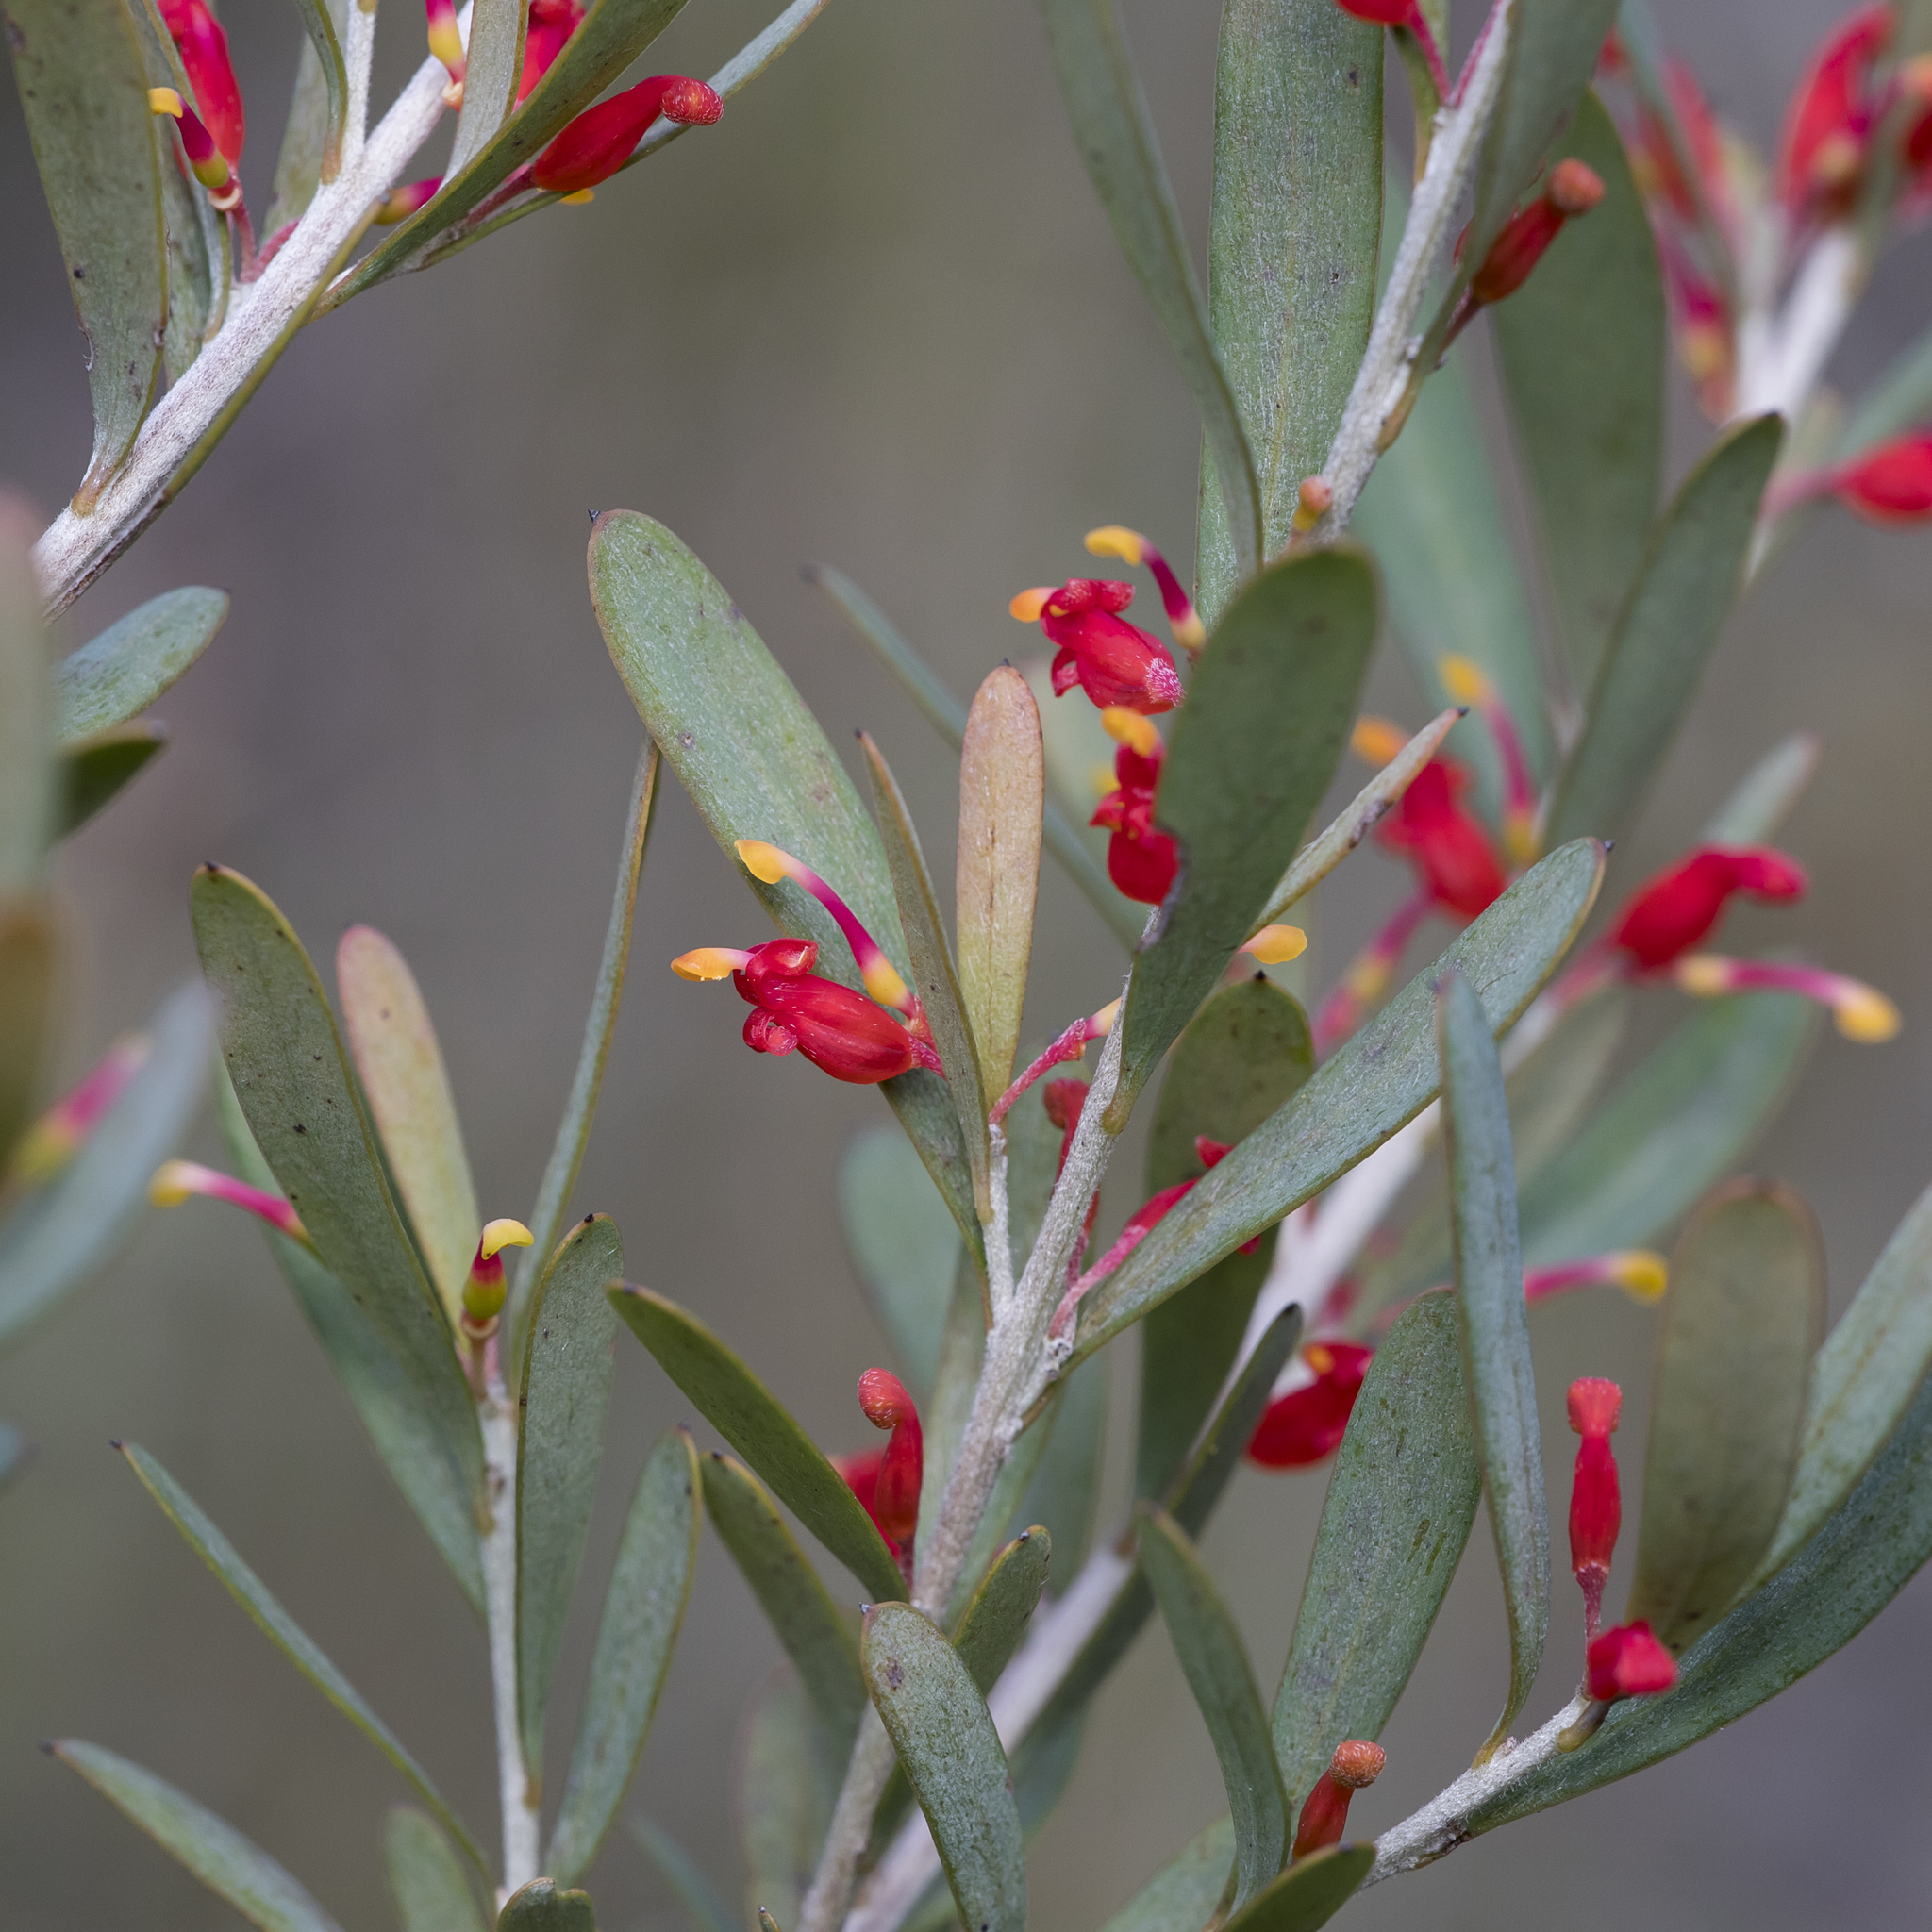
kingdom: Plantae
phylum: Tracheophyta
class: Magnoliopsida
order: Proteales
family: Proteaceae
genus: Grevillea
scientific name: Grevillea pauciflora
